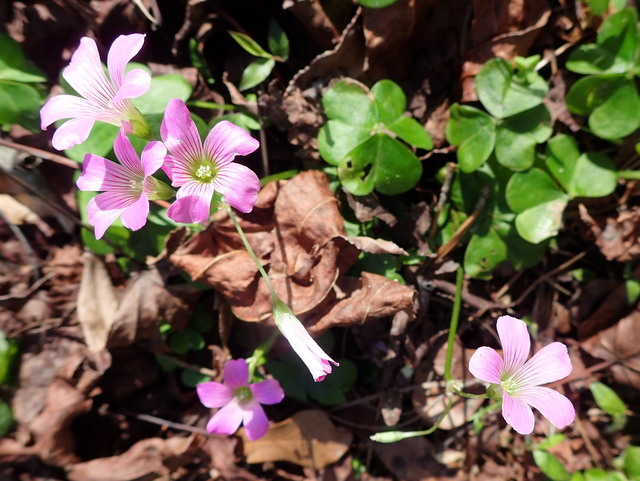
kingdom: Plantae
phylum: Tracheophyta
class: Magnoliopsida
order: Oxalidales
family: Oxalidaceae
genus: Oxalis
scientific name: Oxalis debilis
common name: Large-flowered pink-sorrel
